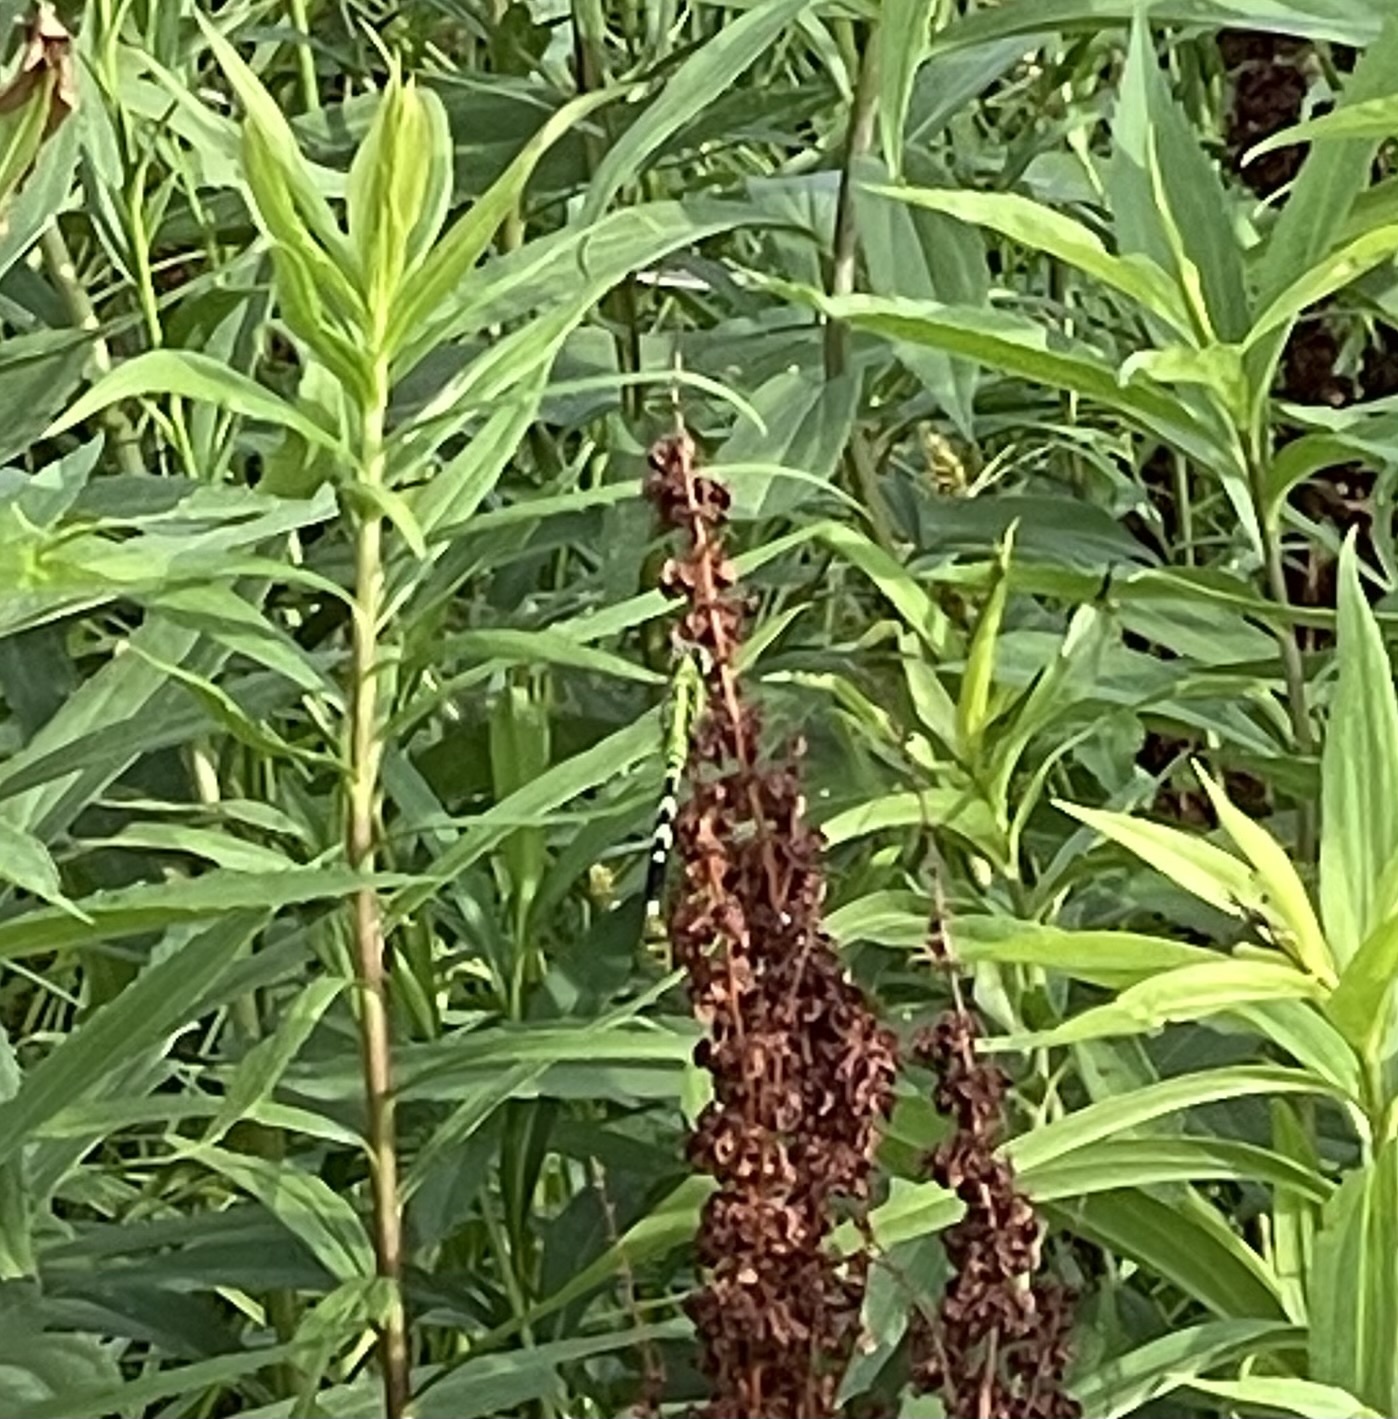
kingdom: Animalia
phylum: Arthropoda
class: Insecta
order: Odonata
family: Libellulidae
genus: Erythemis
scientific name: Erythemis simplicicollis
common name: Eastern pondhawk
